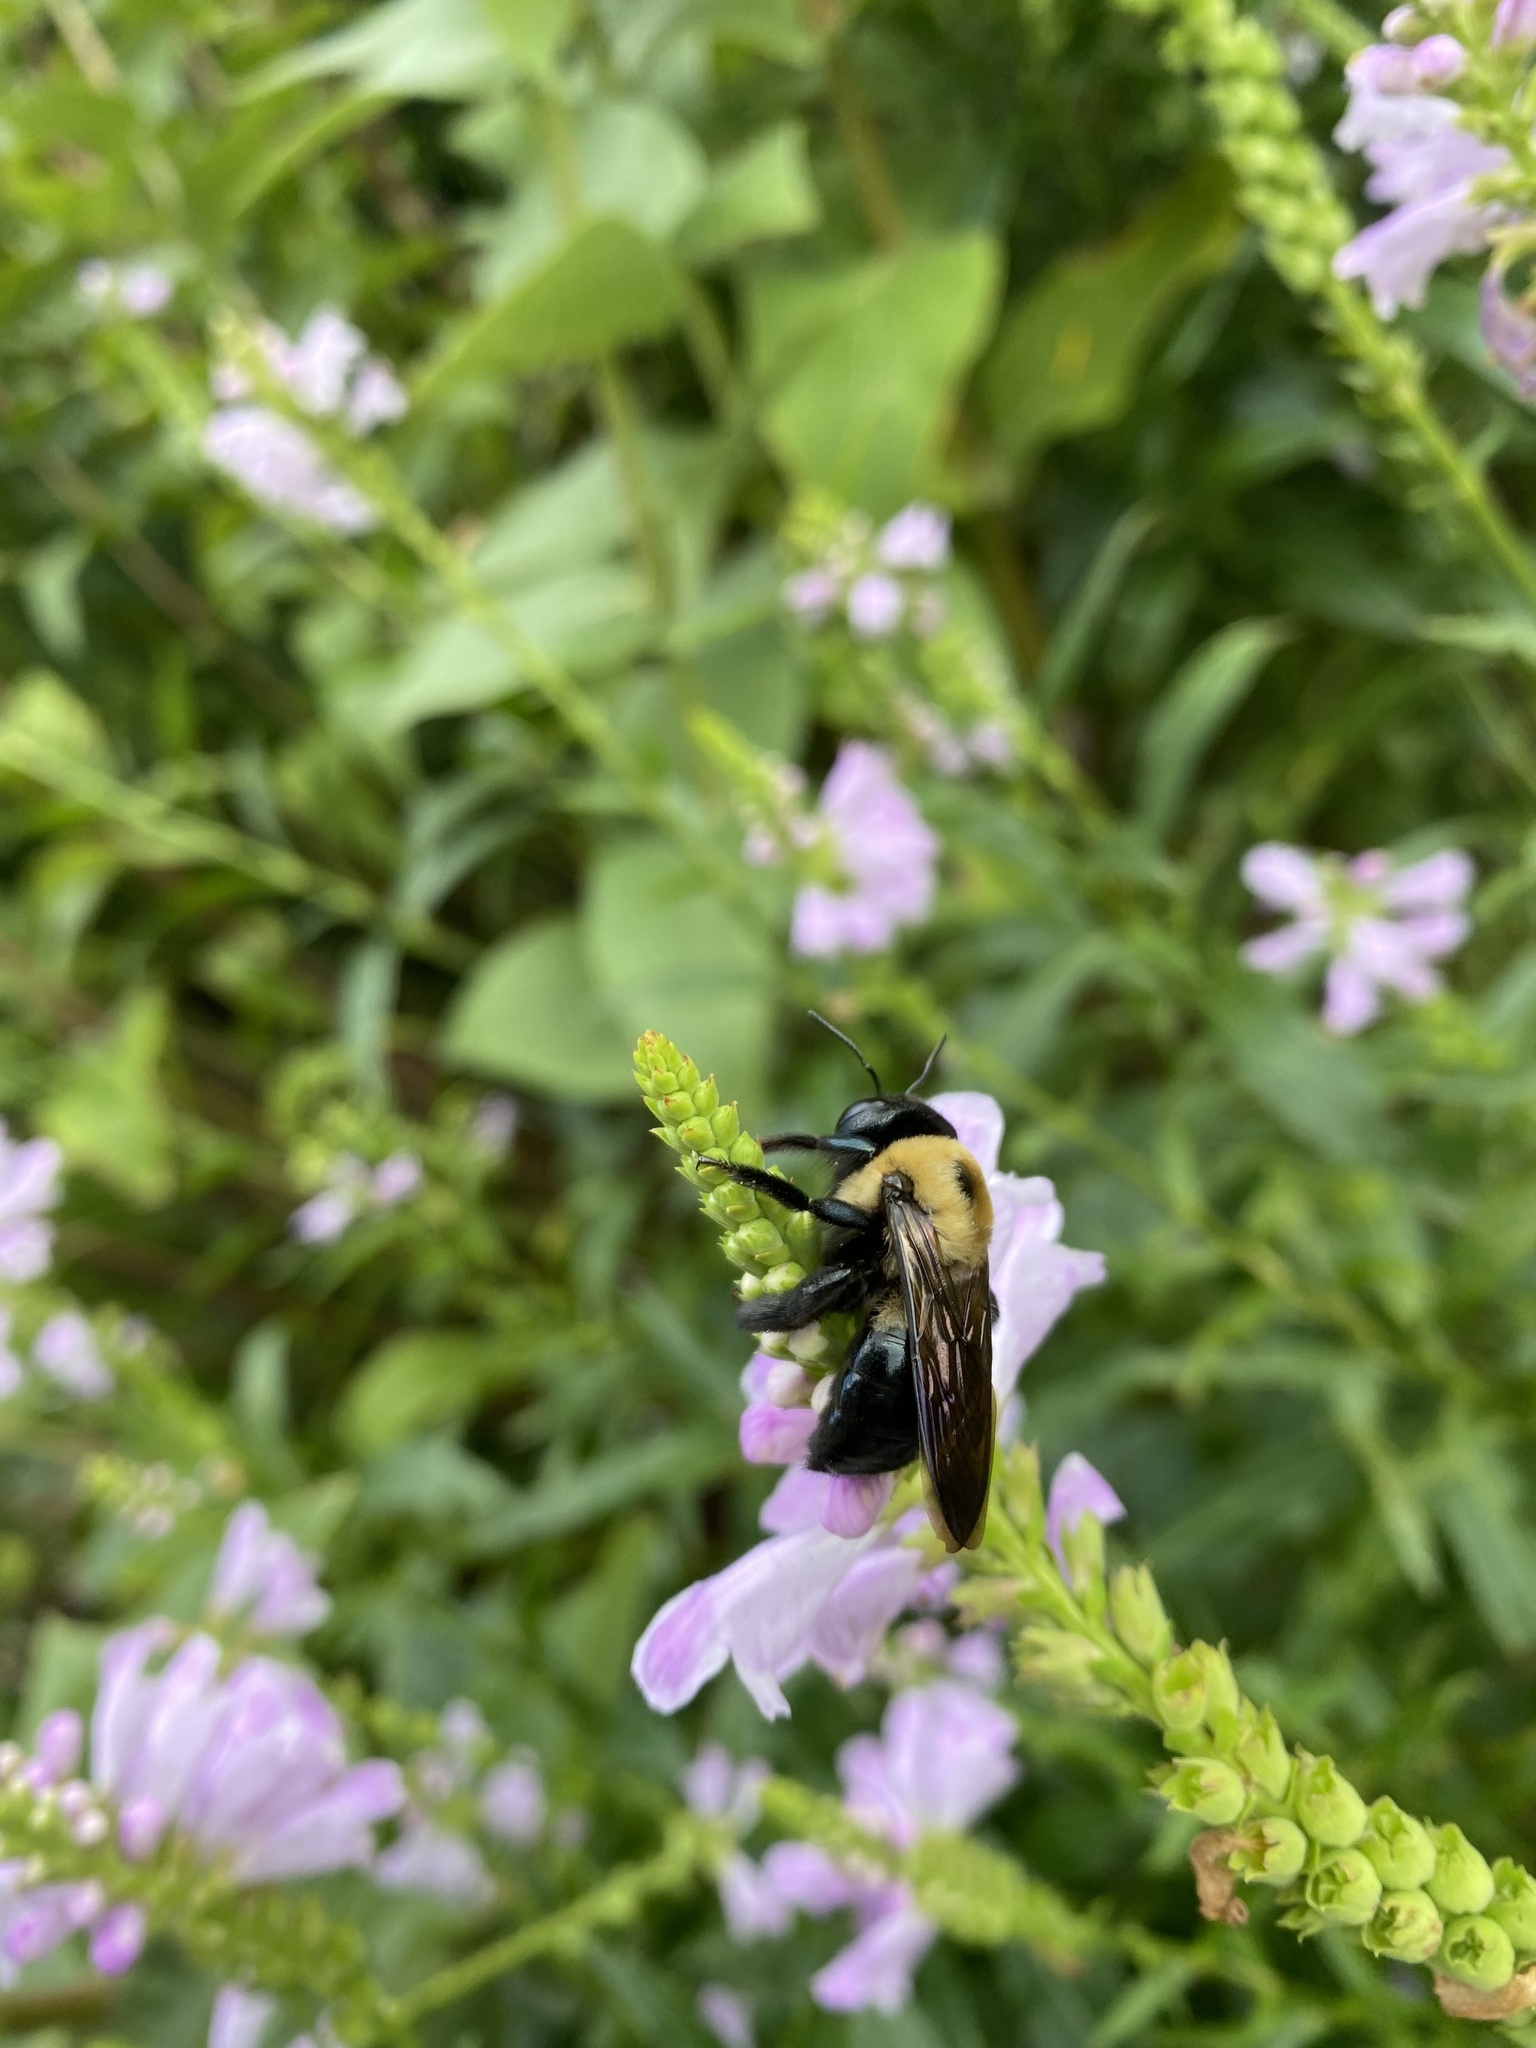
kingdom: Animalia
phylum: Arthropoda
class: Insecta
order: Hymenoptera
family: Apidae
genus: Xylocopa
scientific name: Xylocopa virginica
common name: Carpenter bee
